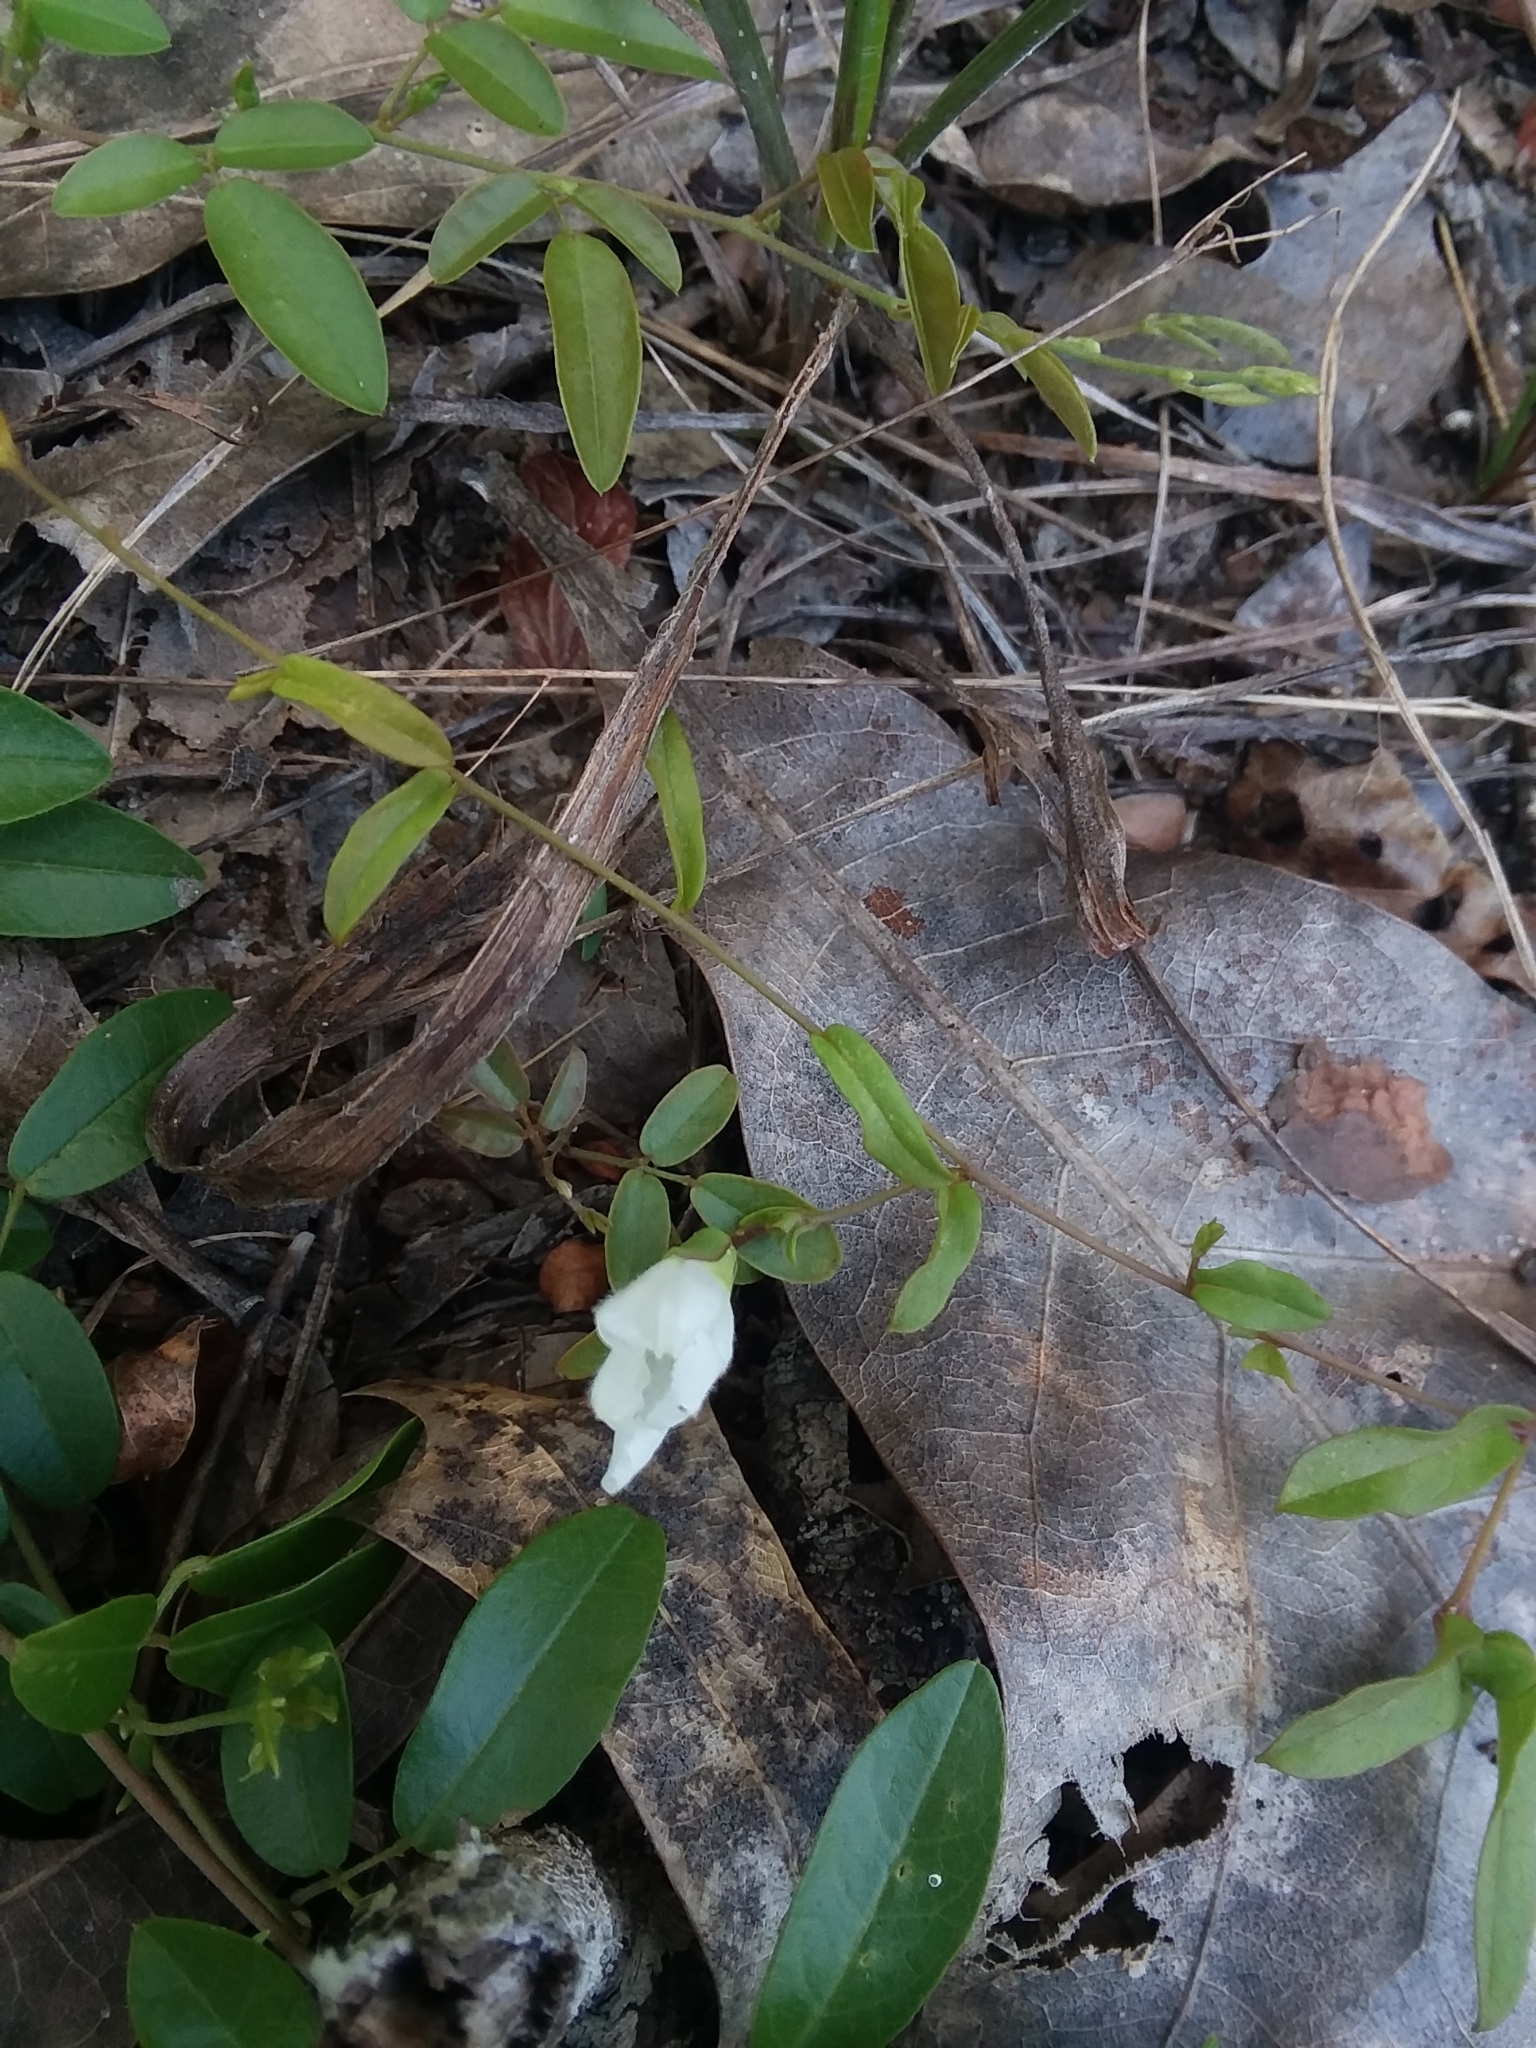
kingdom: Plantae
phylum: Tracheophyta
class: Magnoliopsida
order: Solanales
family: Convolvulaceae
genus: Stylisma
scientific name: Stylisma patens
